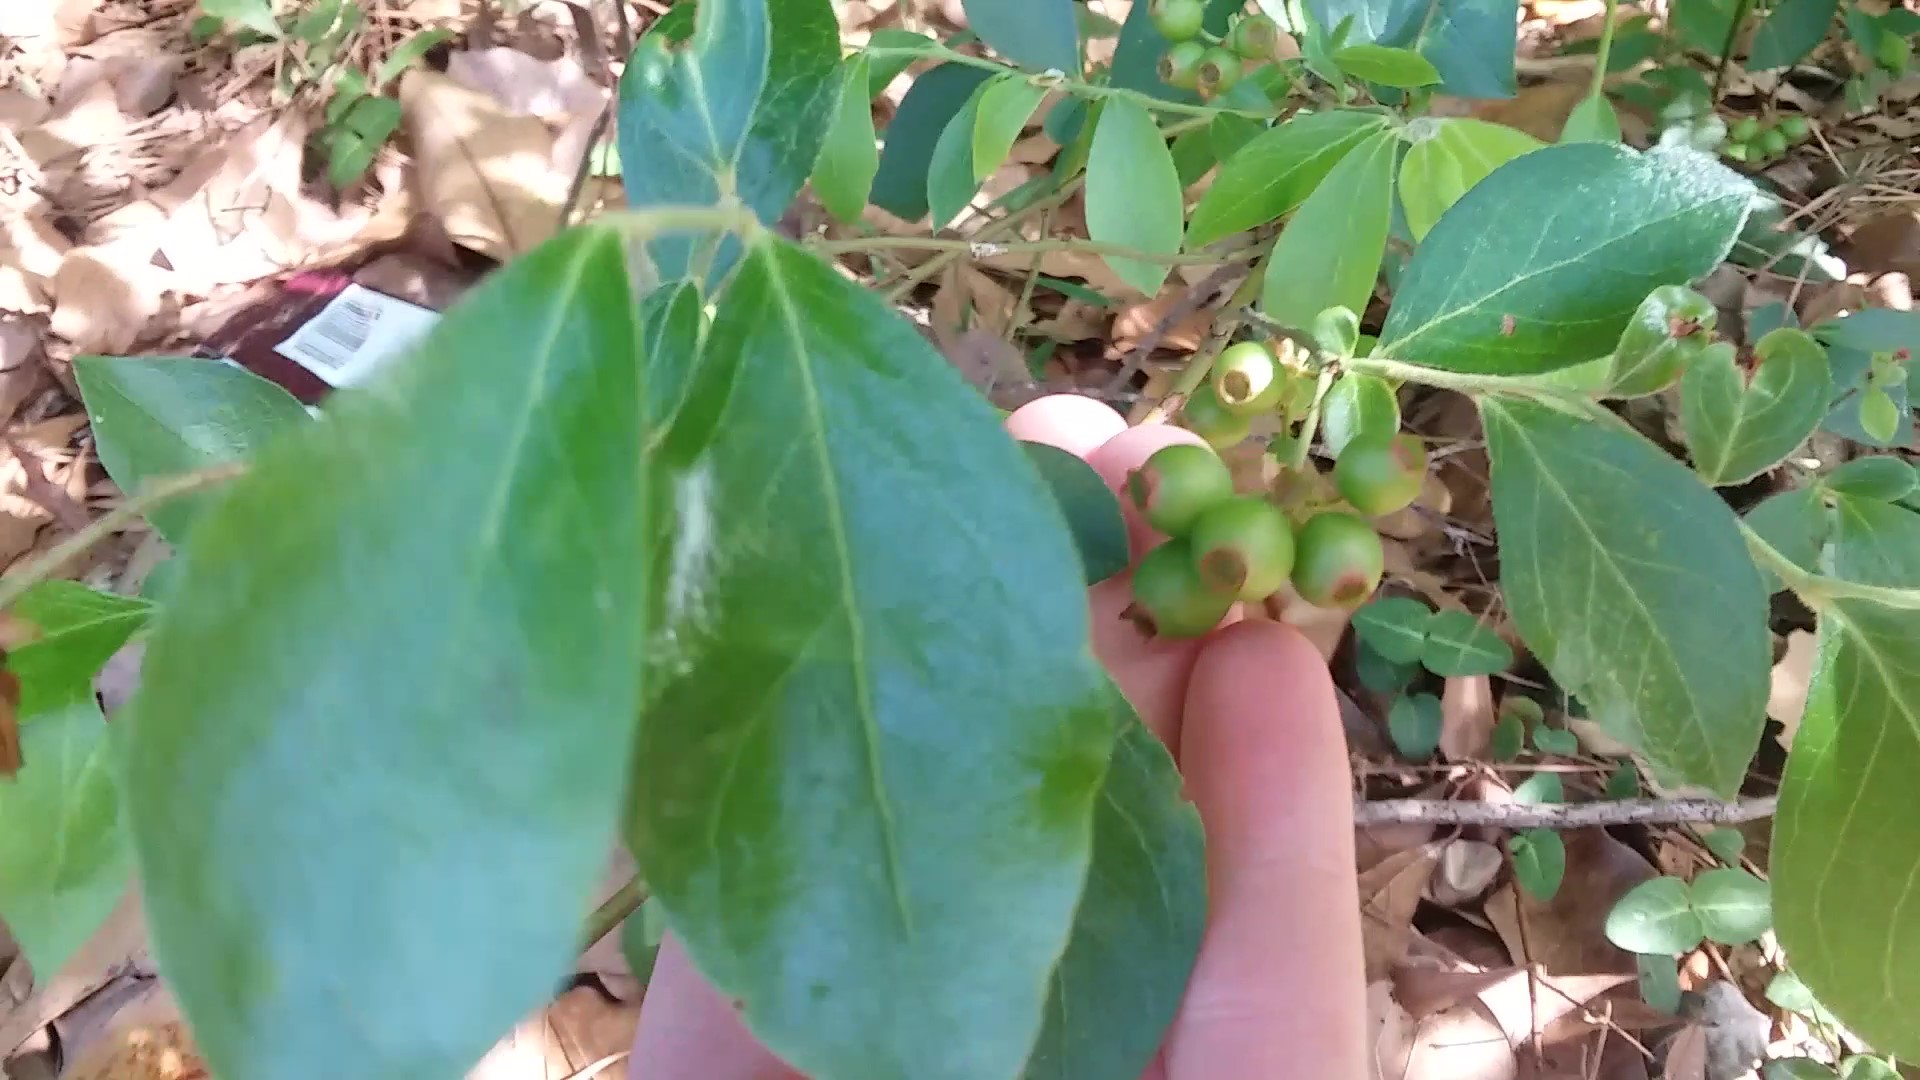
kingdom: Plantae
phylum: Tracheophyta
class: Magnoliopsida
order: Gentianales
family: Rubiaceae
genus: Mitchella
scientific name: Mitchella repens
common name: Partridge-berry
